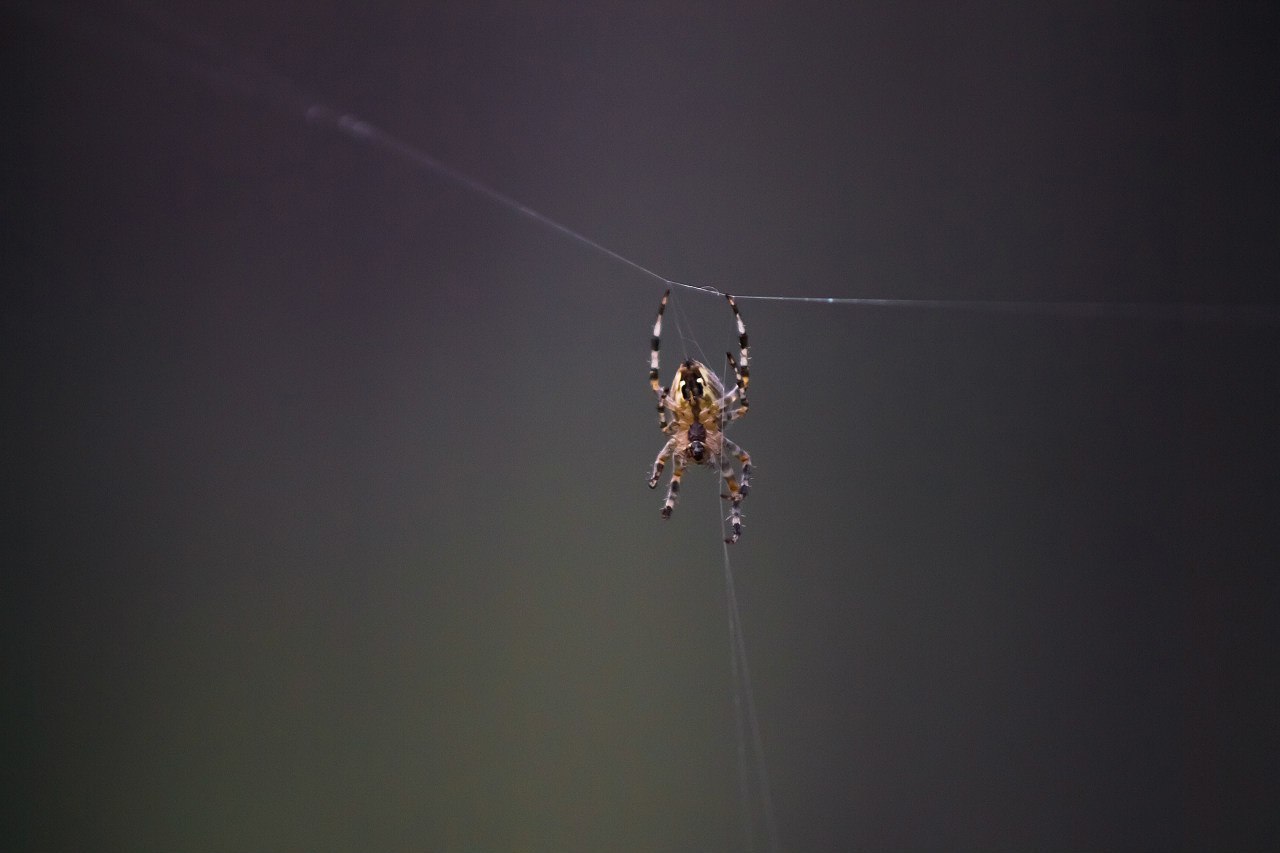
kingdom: Animalia
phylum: Arthropoda
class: Arachnida
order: Araneae
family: Araneidae
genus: Araneus
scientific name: Araneus diadematus
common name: Cross orbweaver
